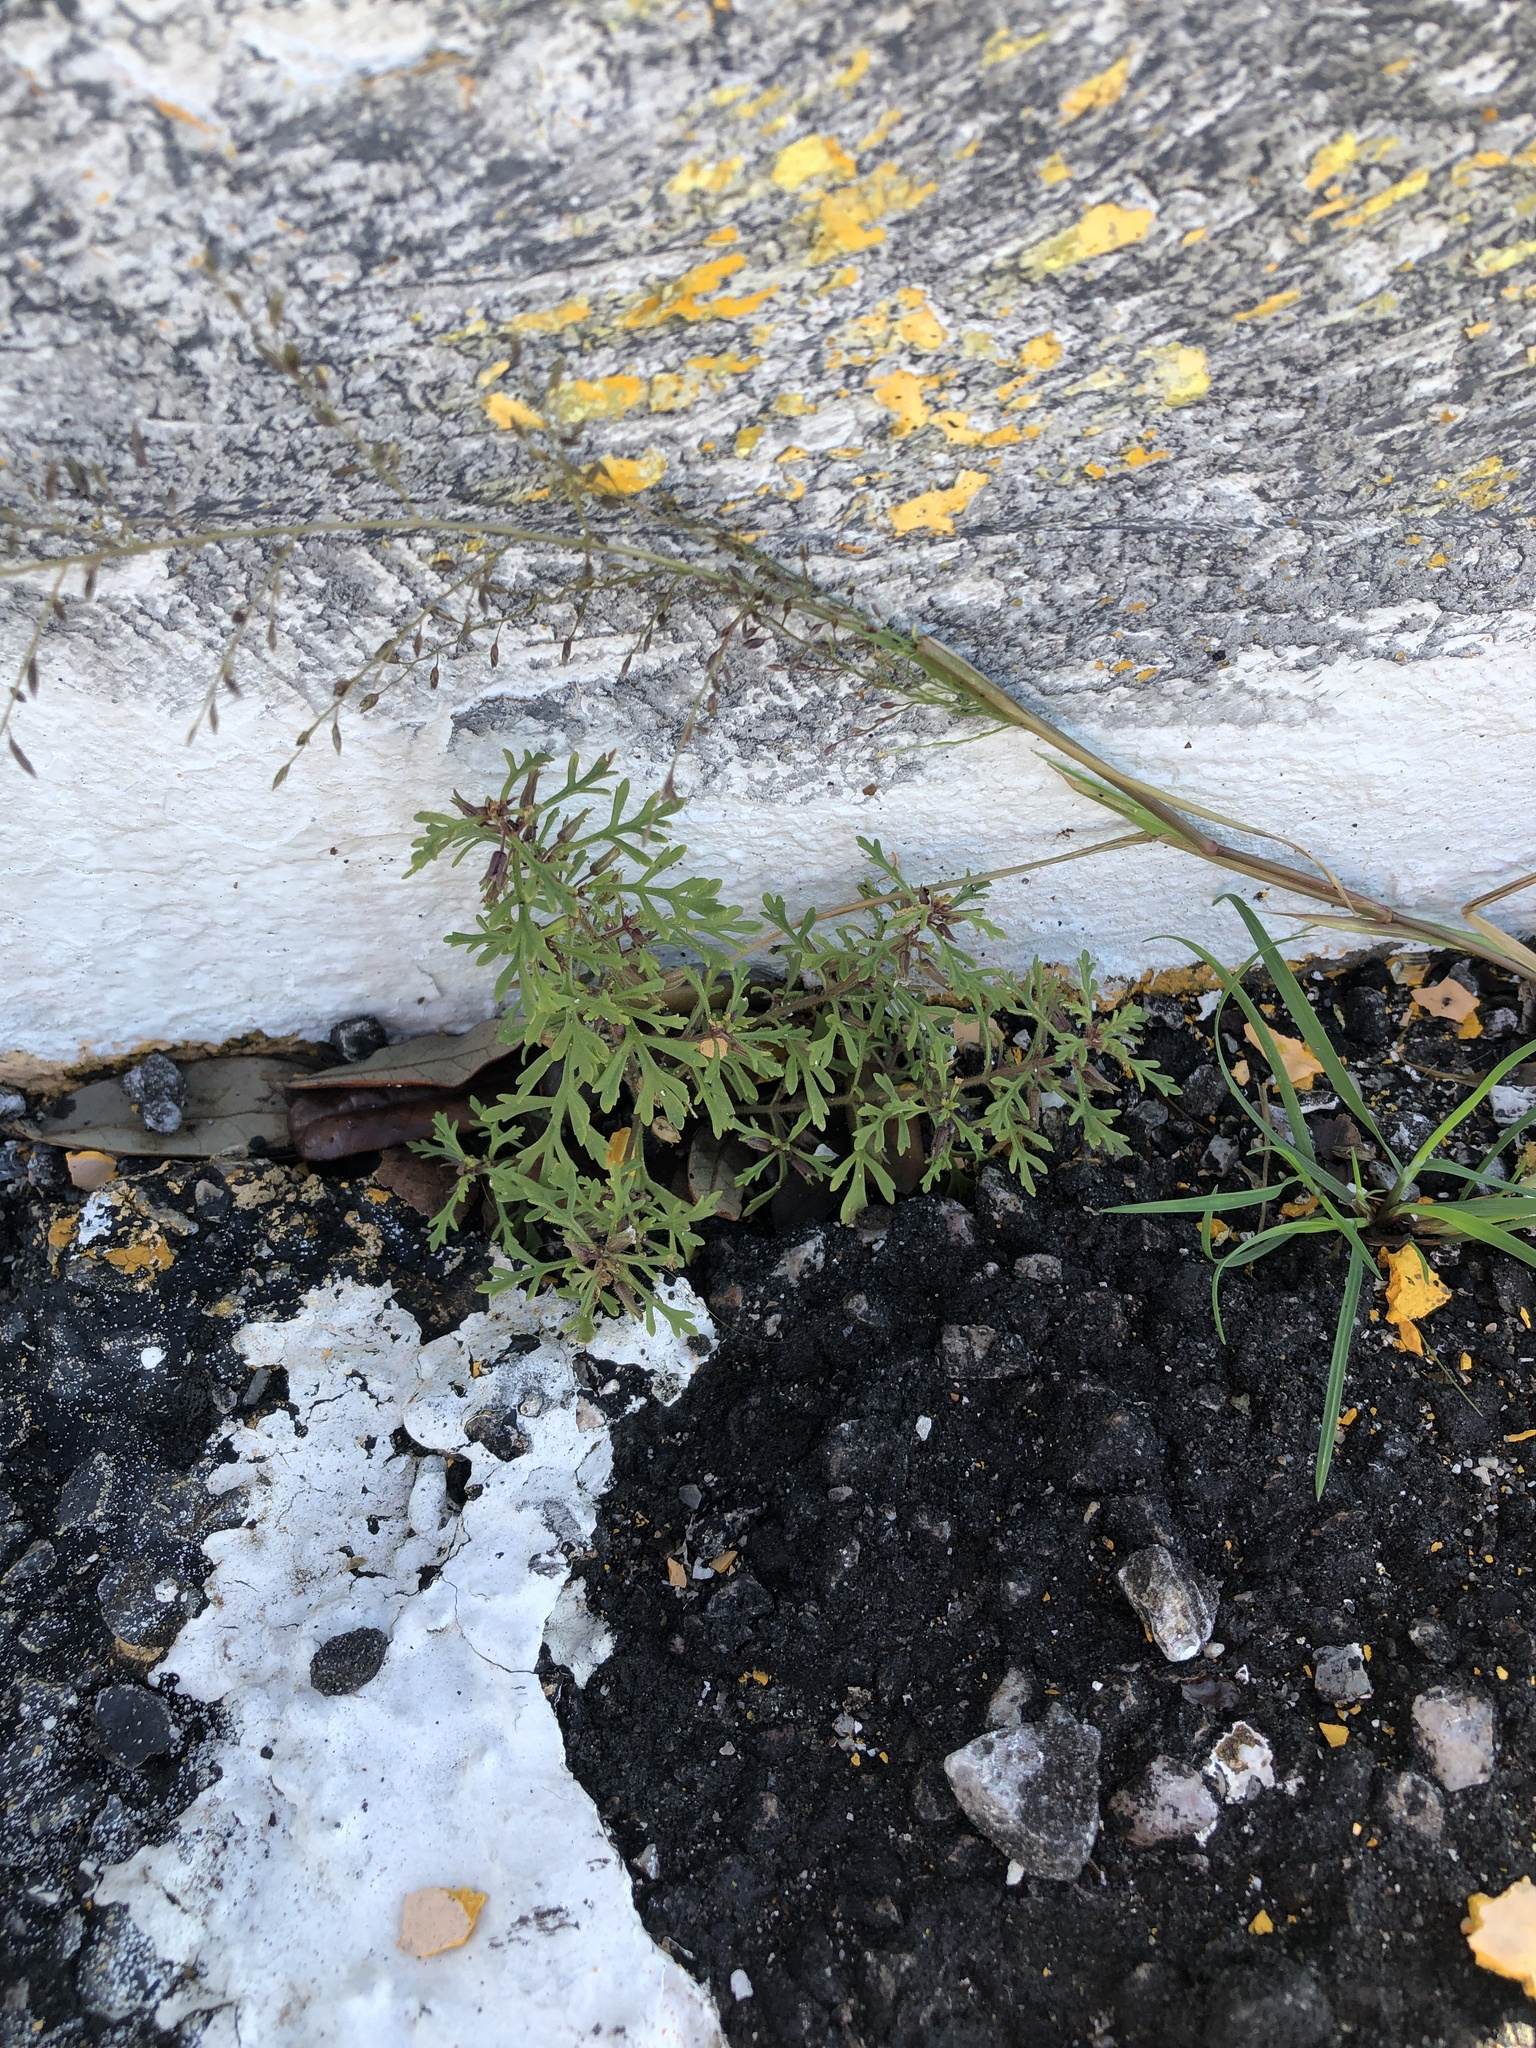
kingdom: Plantae
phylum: Tracheophyta
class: Magnoliopsida
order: Lamiales
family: Plantaginaceae
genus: Leucospora
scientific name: Leucospora multifida
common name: Narrow-leaf paleseed
